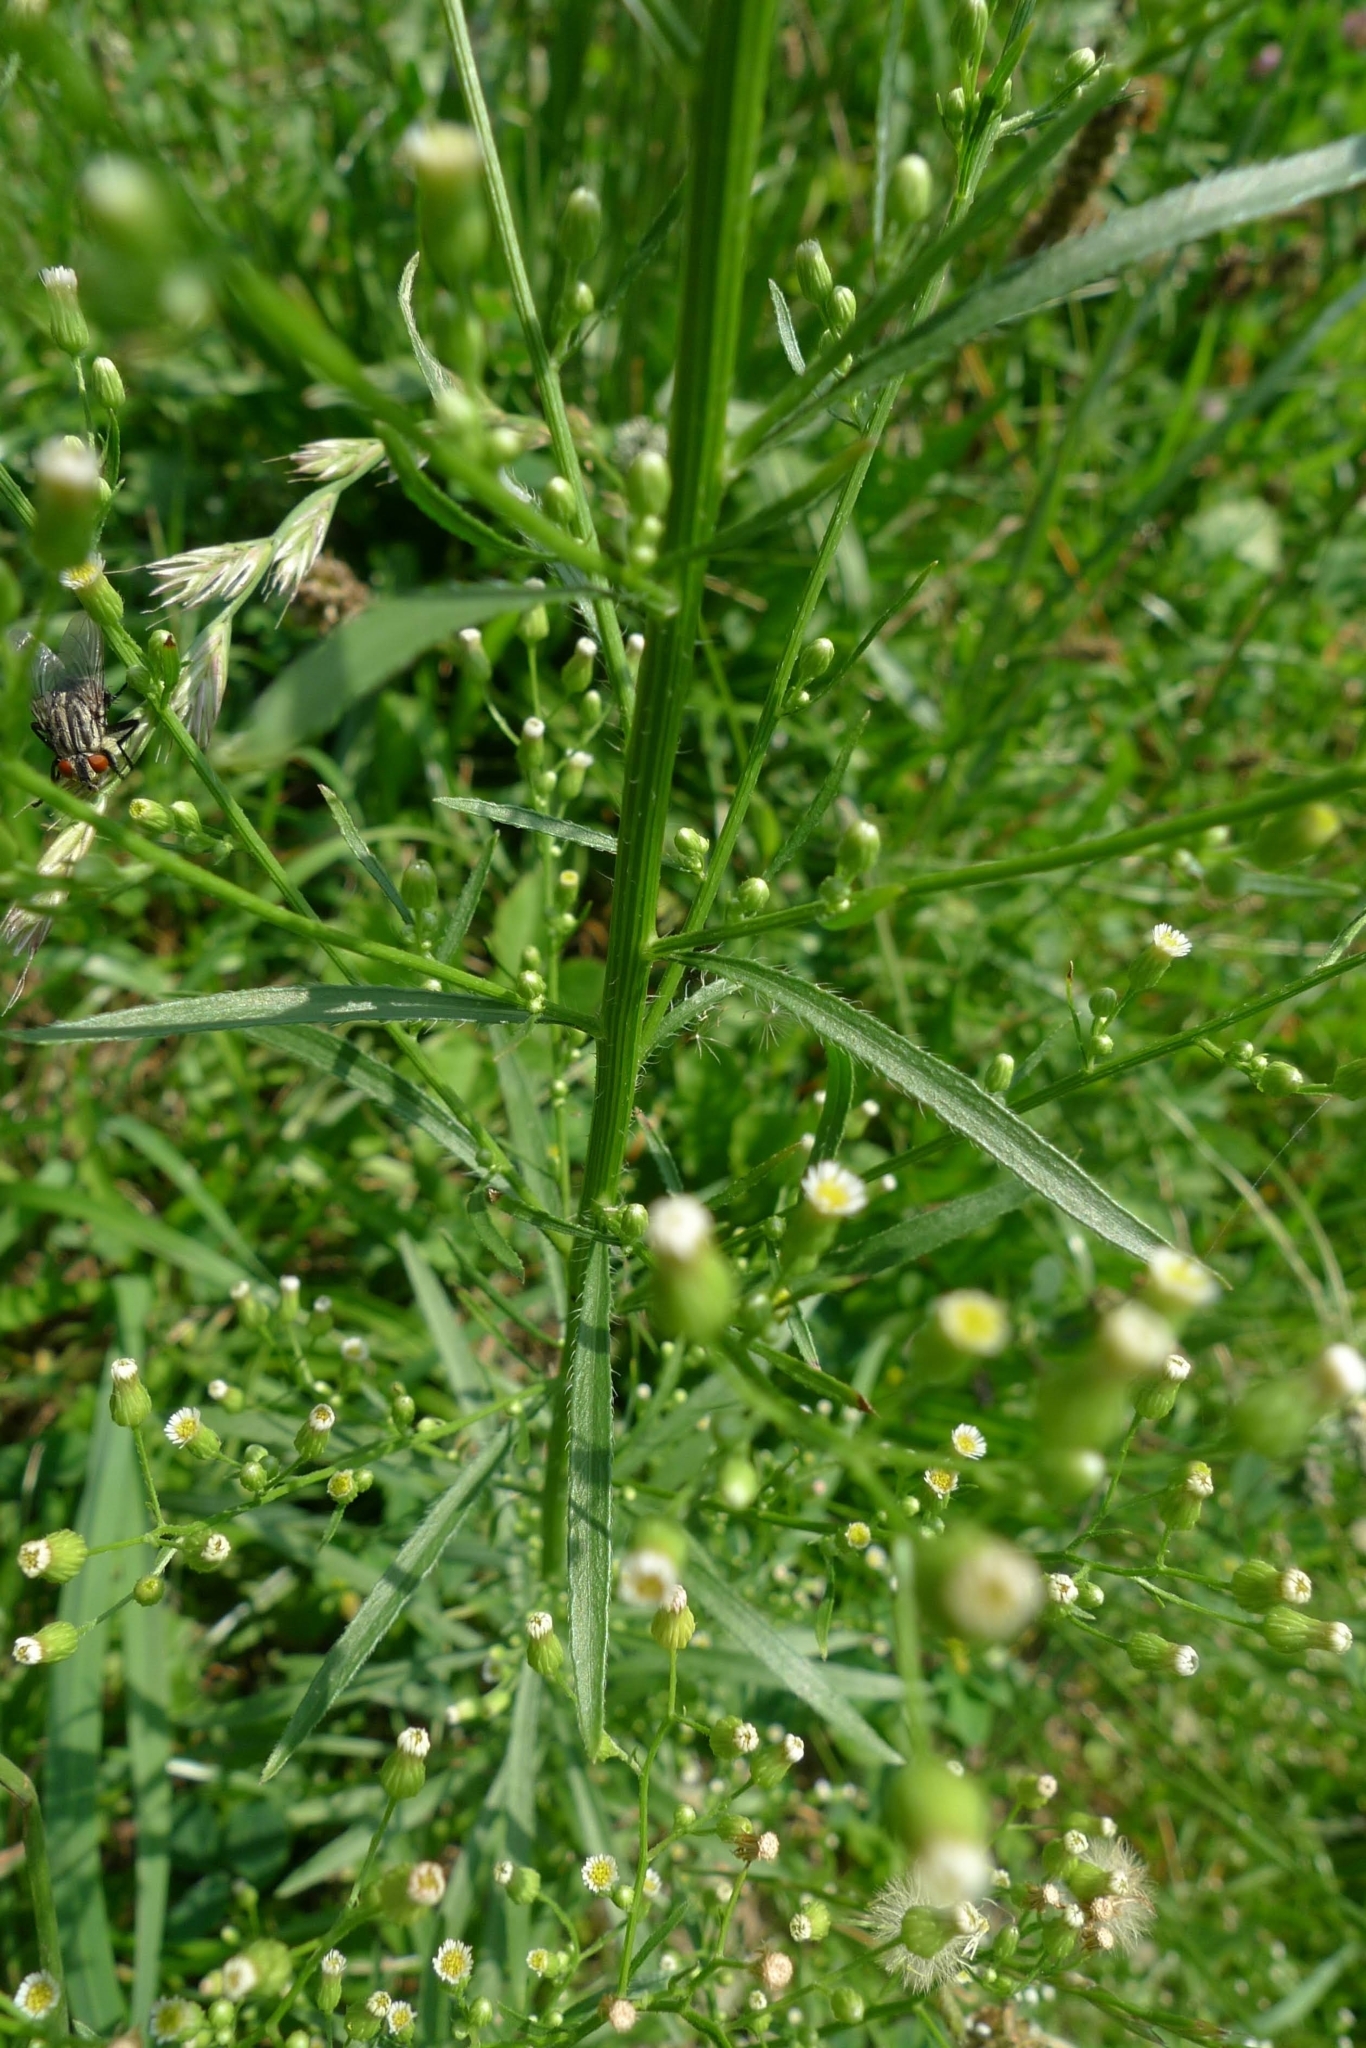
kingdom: Plantae
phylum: Tracheophyta
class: Magnoliopsida
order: Asterales
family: Asteraceae
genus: Erigeron
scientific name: Erigeron canadensis
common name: Canadian fleabane
